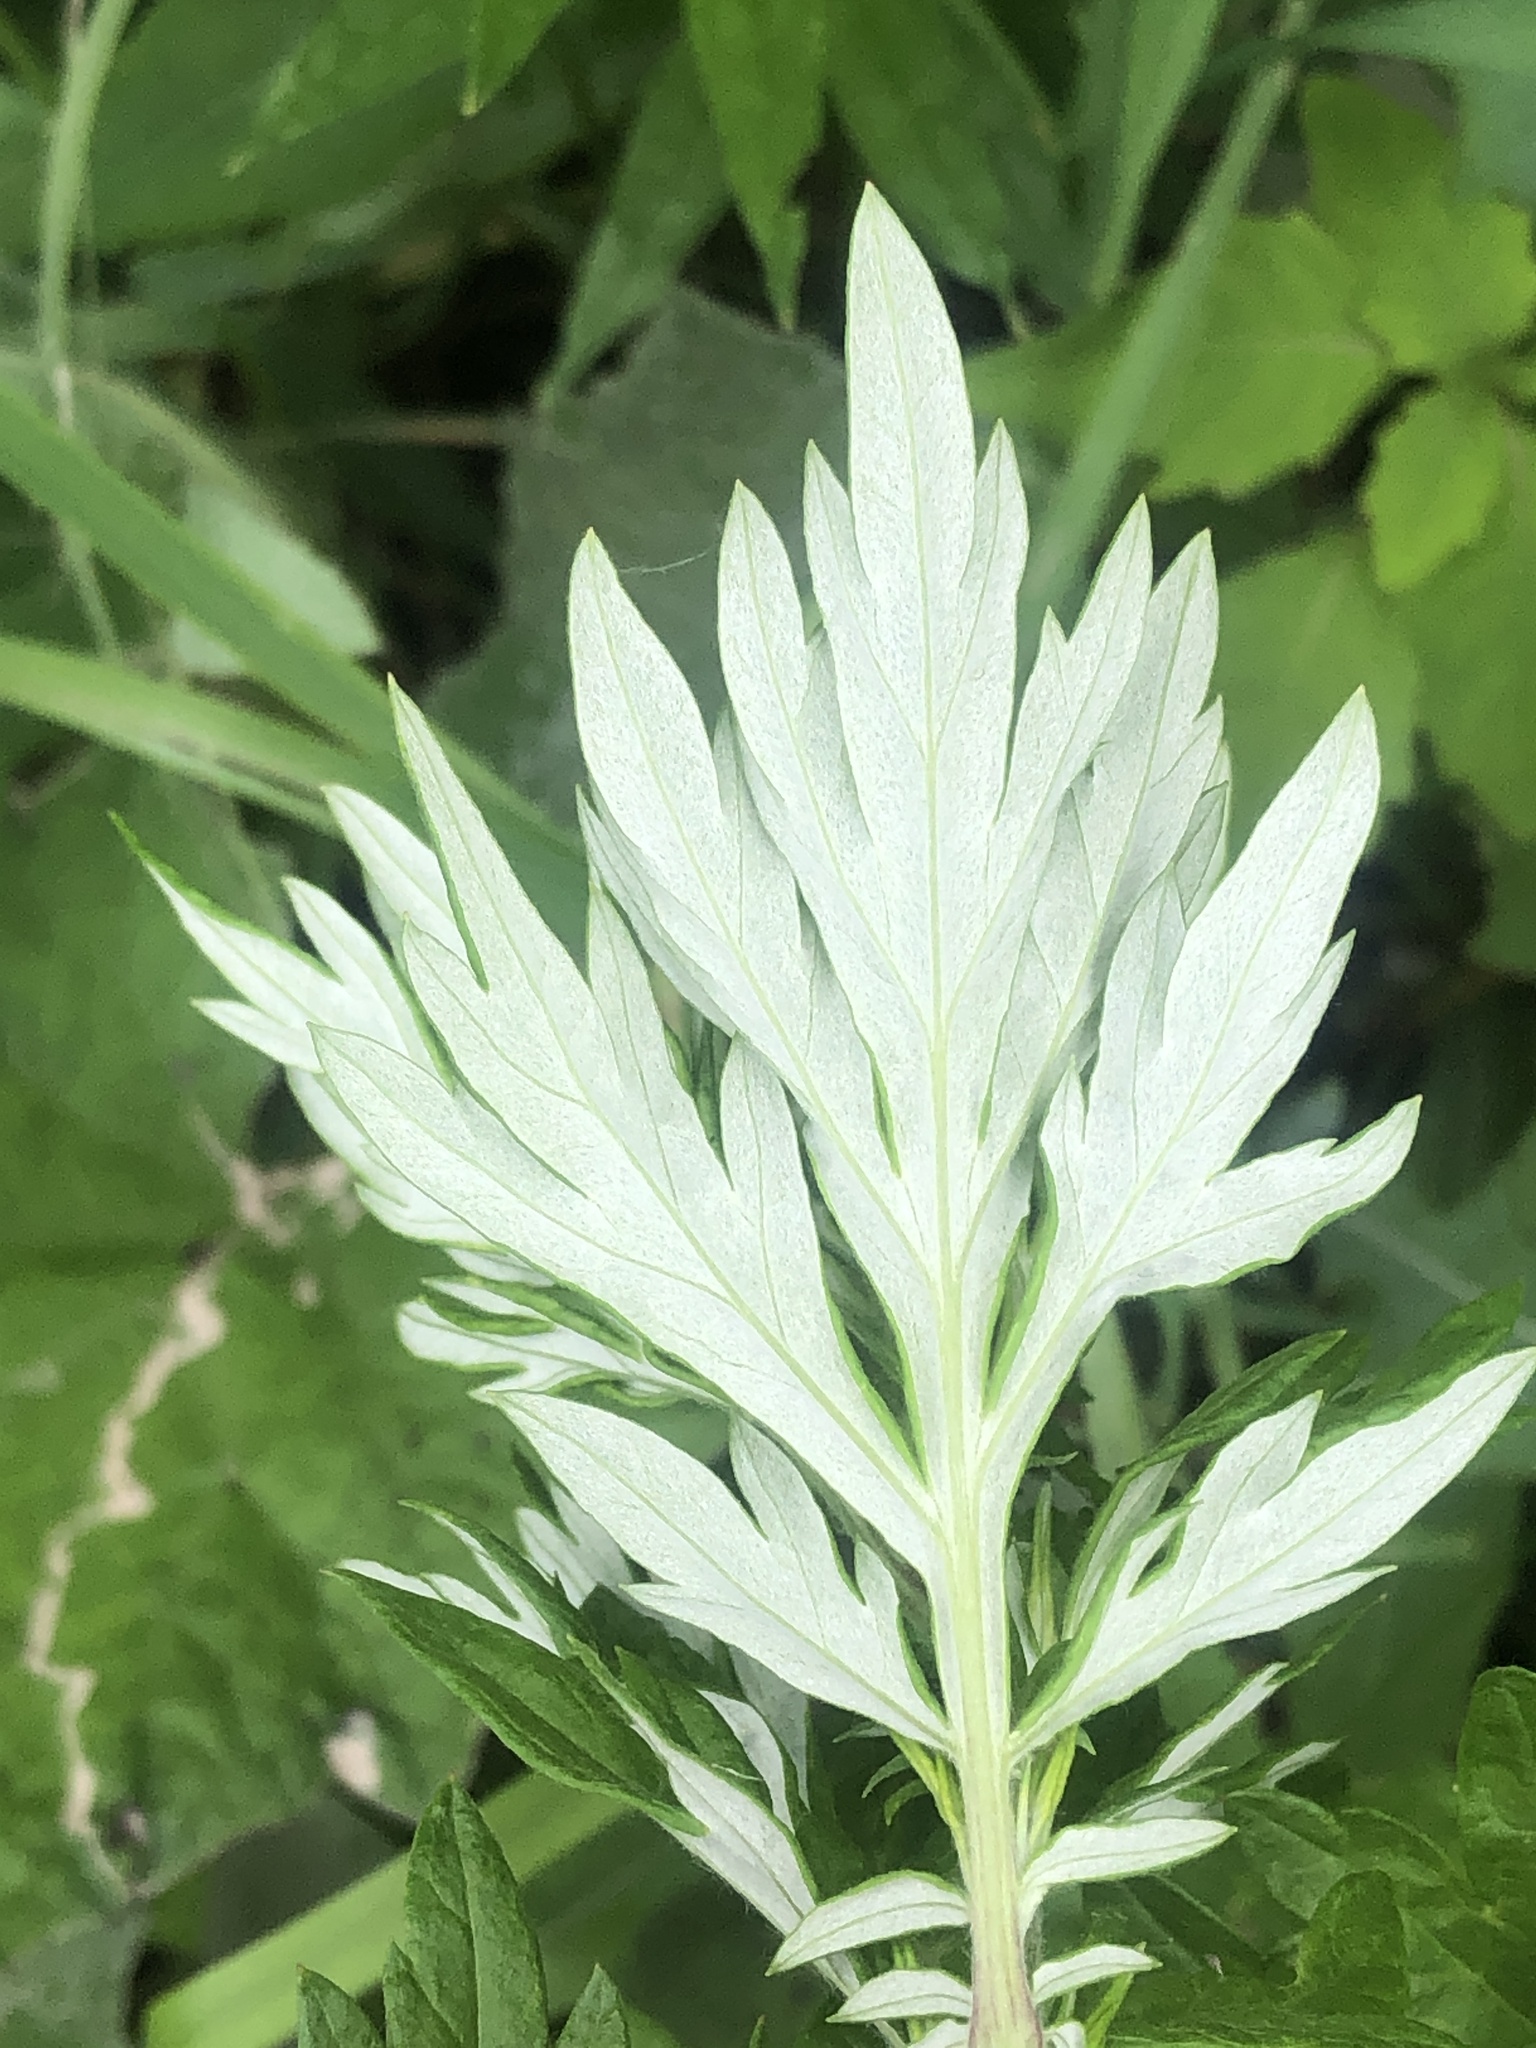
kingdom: Plantae
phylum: Tracheophyta
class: Magnoliopsida
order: Asterales
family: Asteraceae
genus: Artemisia
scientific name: Artemisia vulgaris
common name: Mugwort
